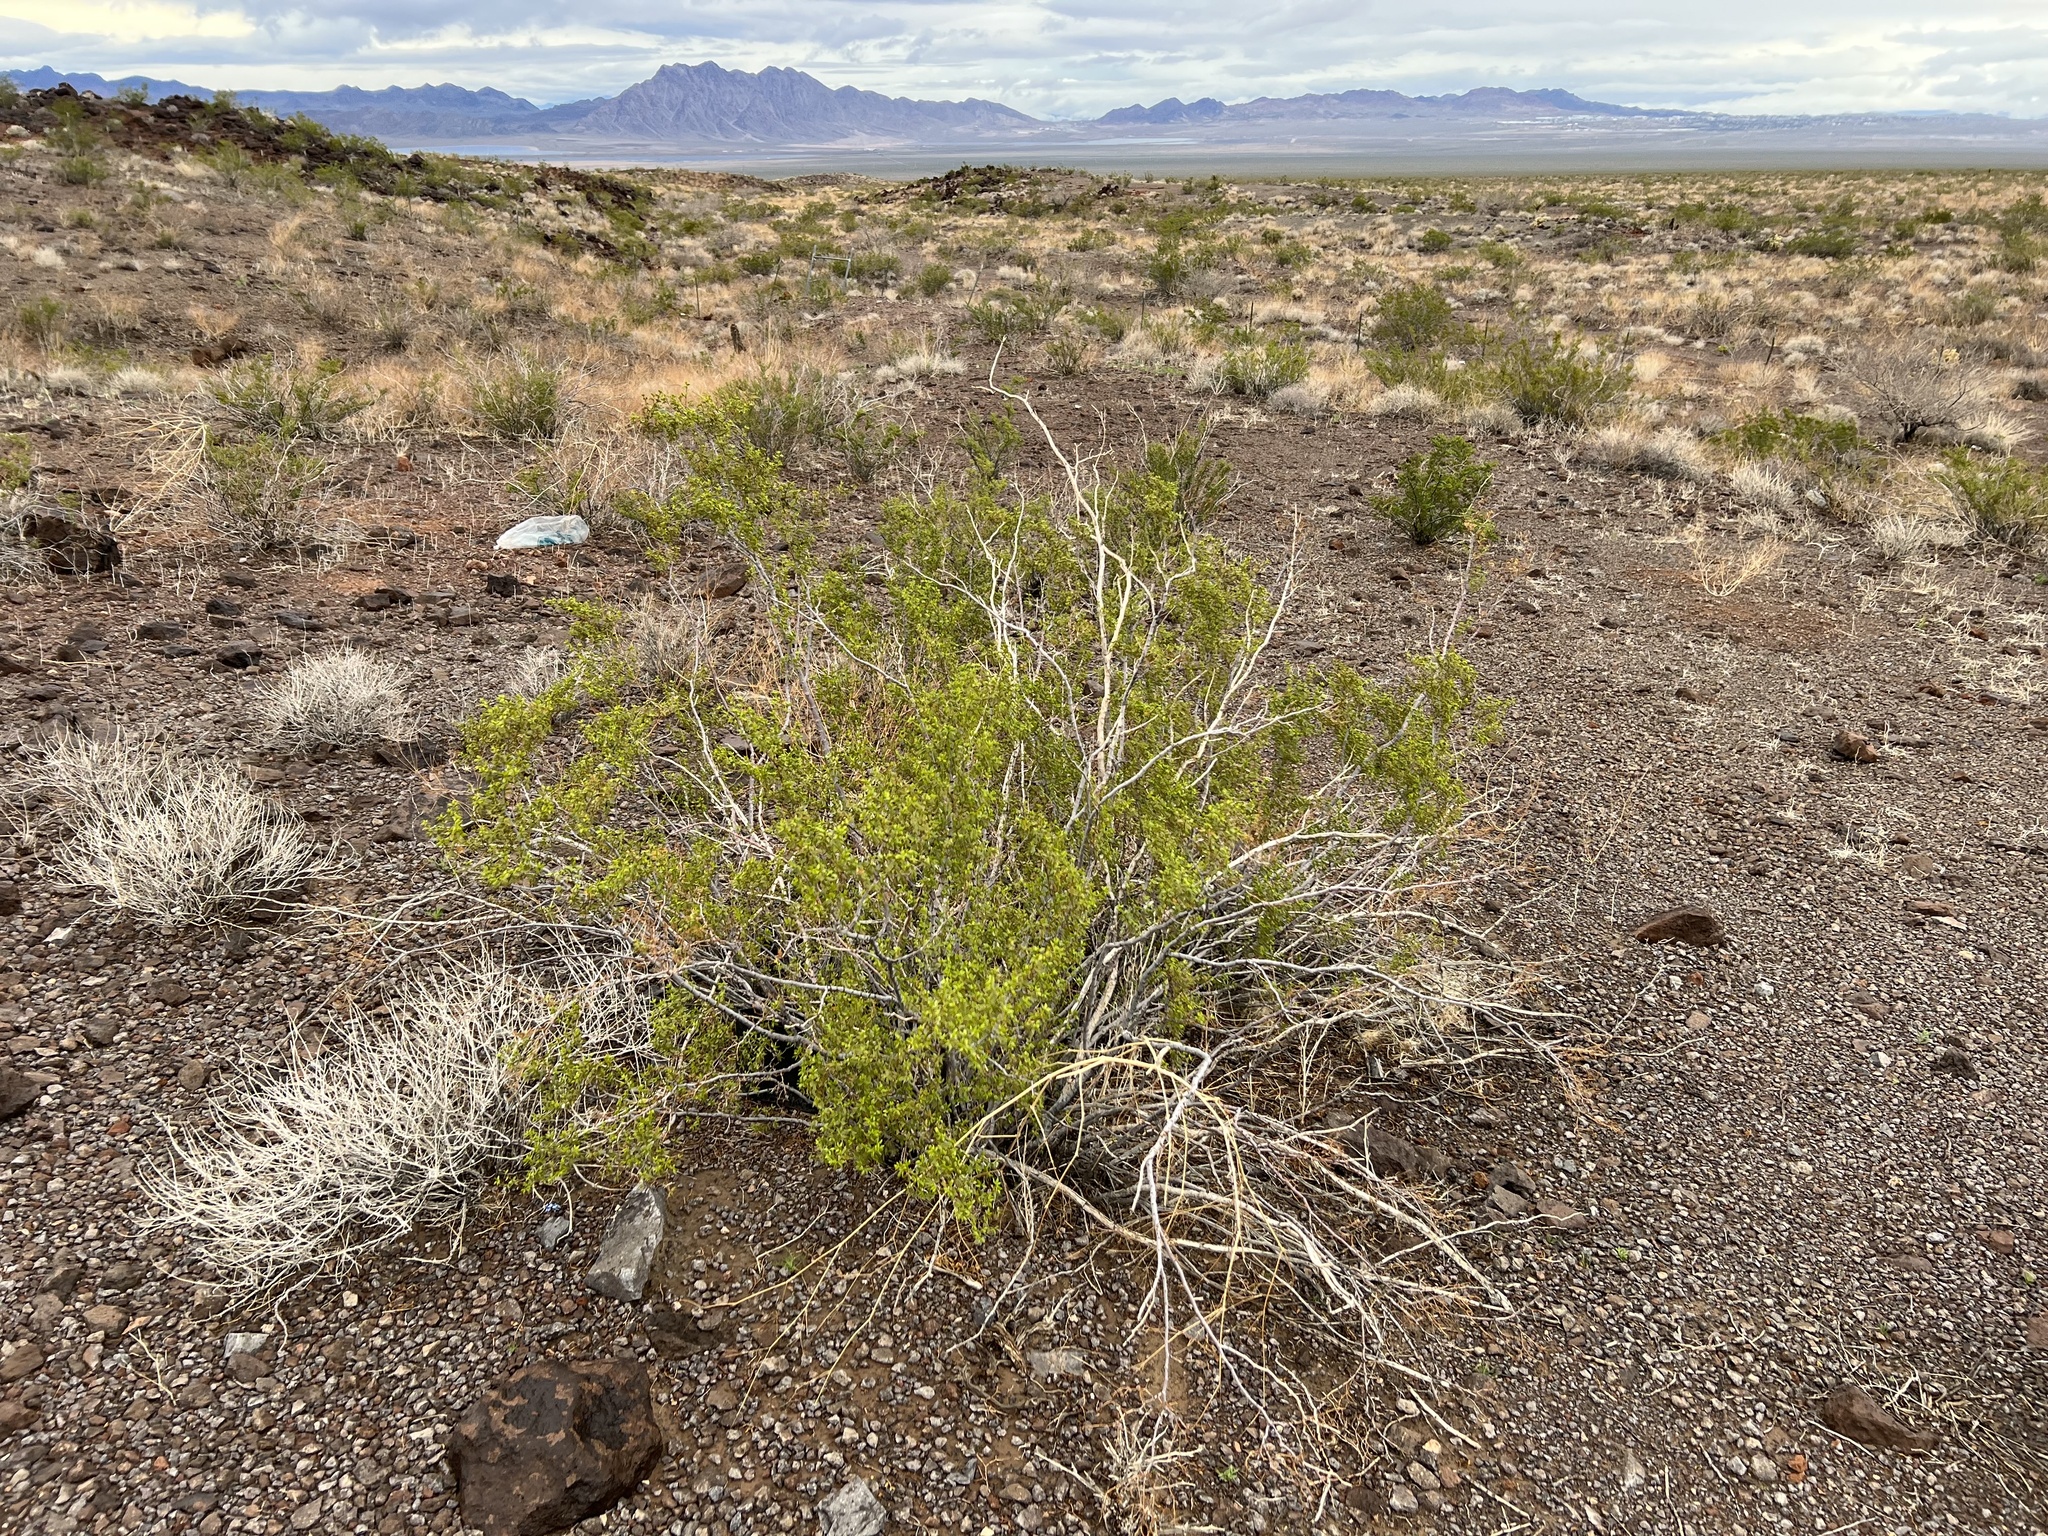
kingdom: Plantae
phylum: Tracheophyta
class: Magnoliopsida
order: Zygophyllales
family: Zygophyllaceae
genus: Larrea
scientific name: Larrea tridentata
